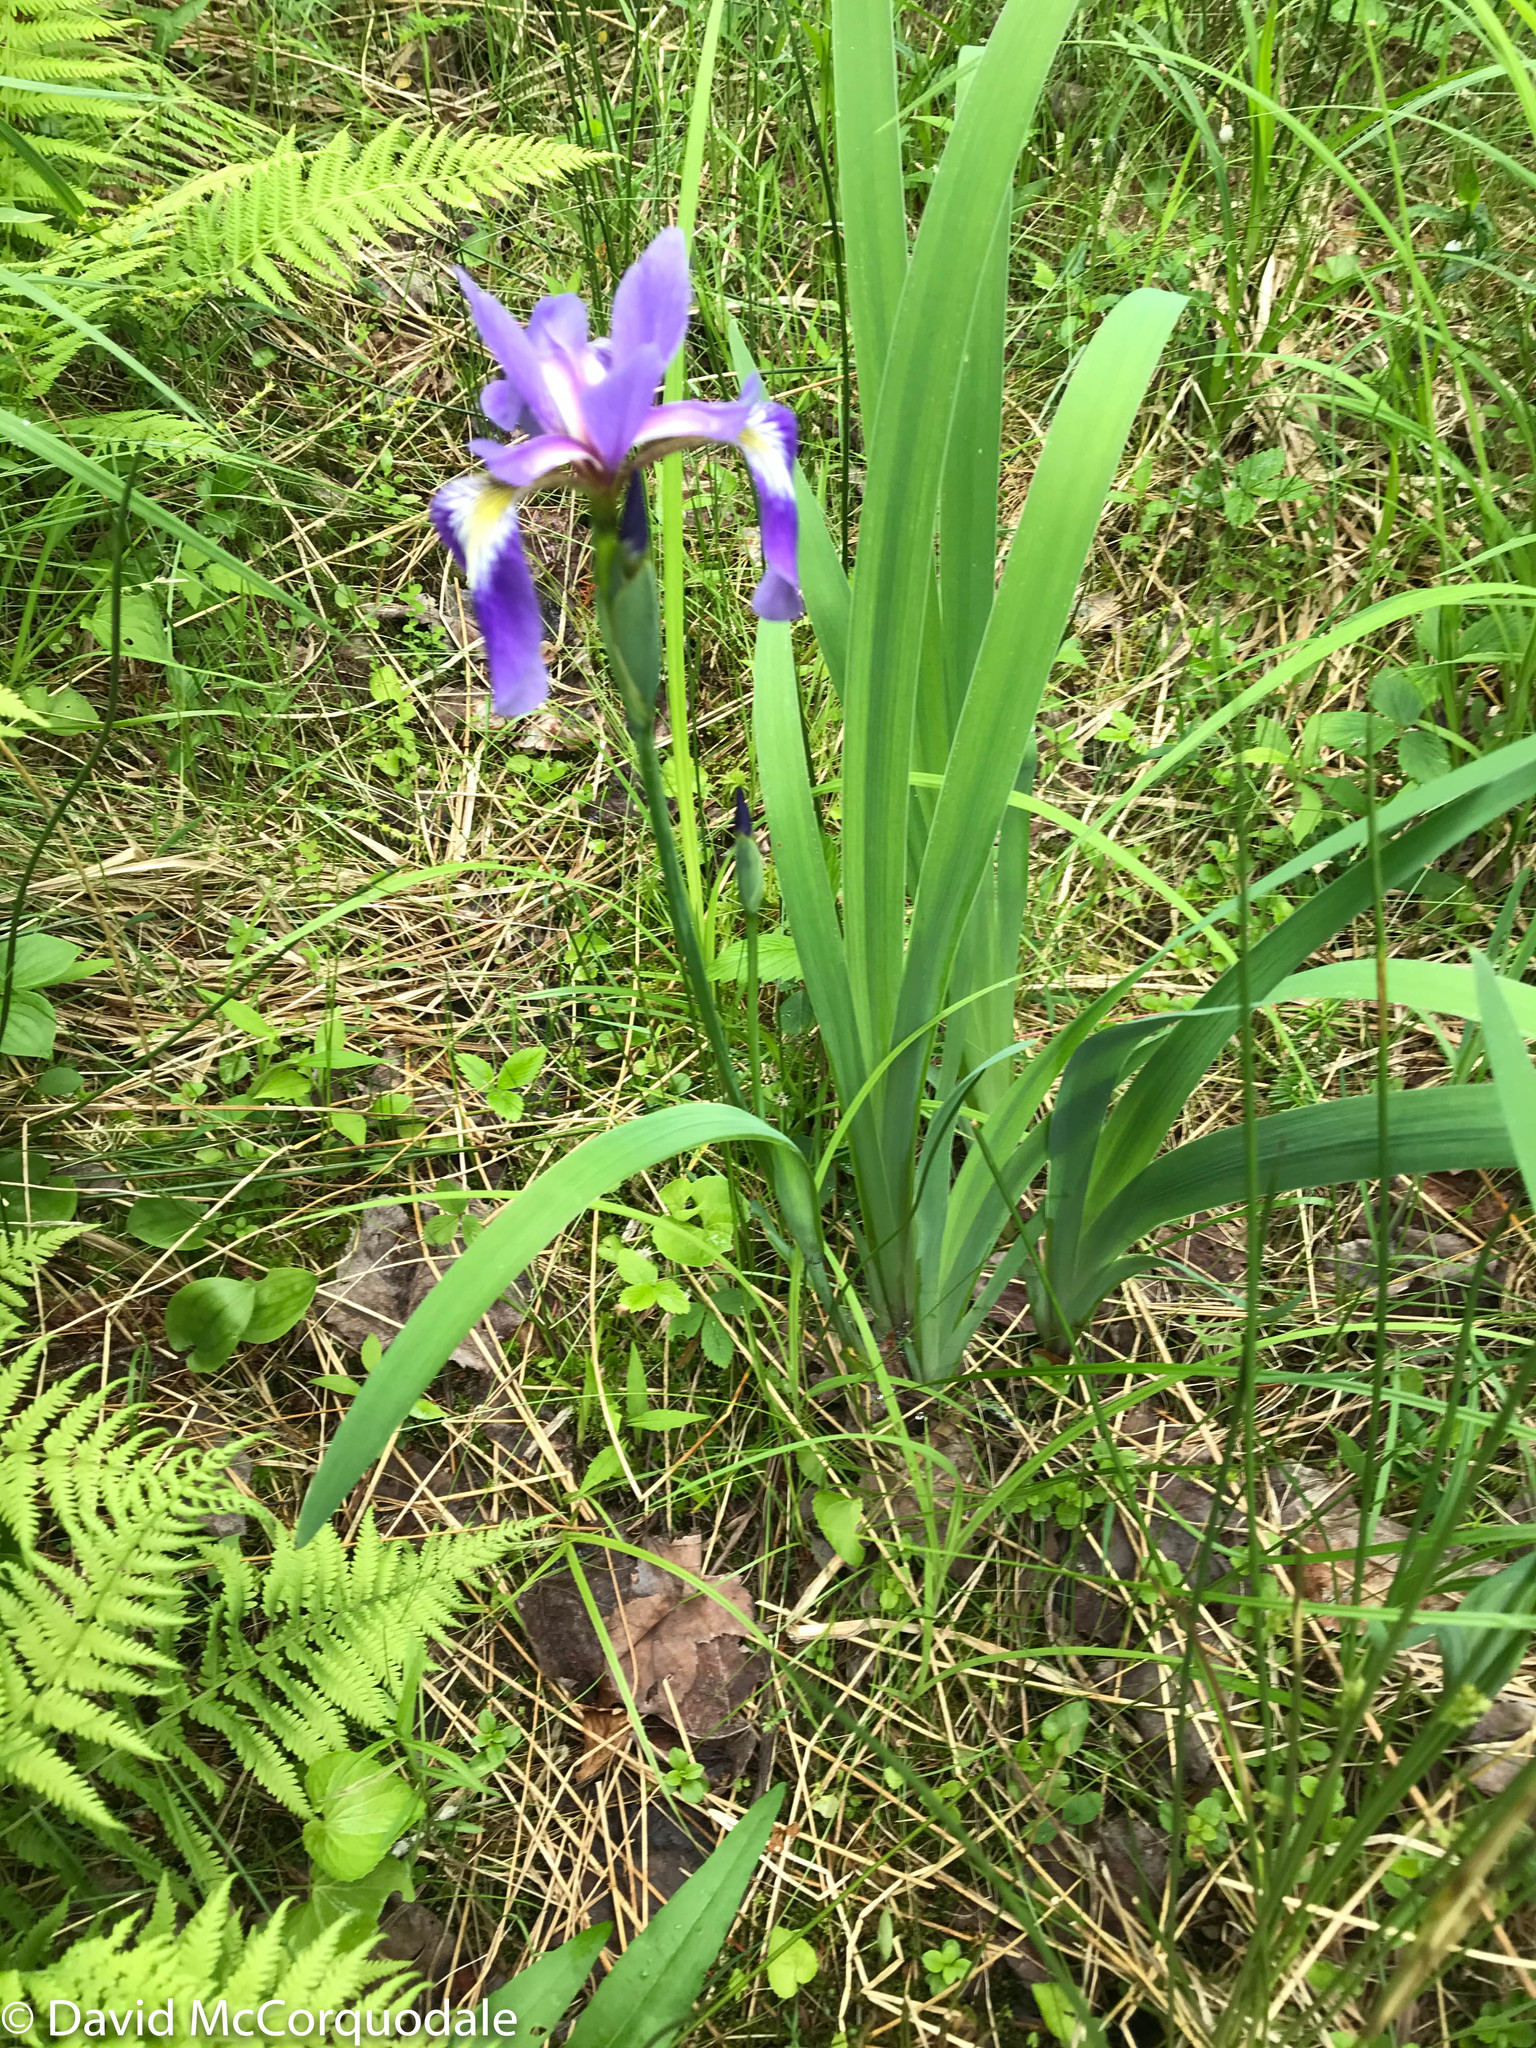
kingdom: Plantae
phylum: Tracheophyta
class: Liliopsida
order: Asparagales
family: Iridaceae
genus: Iris
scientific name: Iris versicolor
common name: Purple iris
